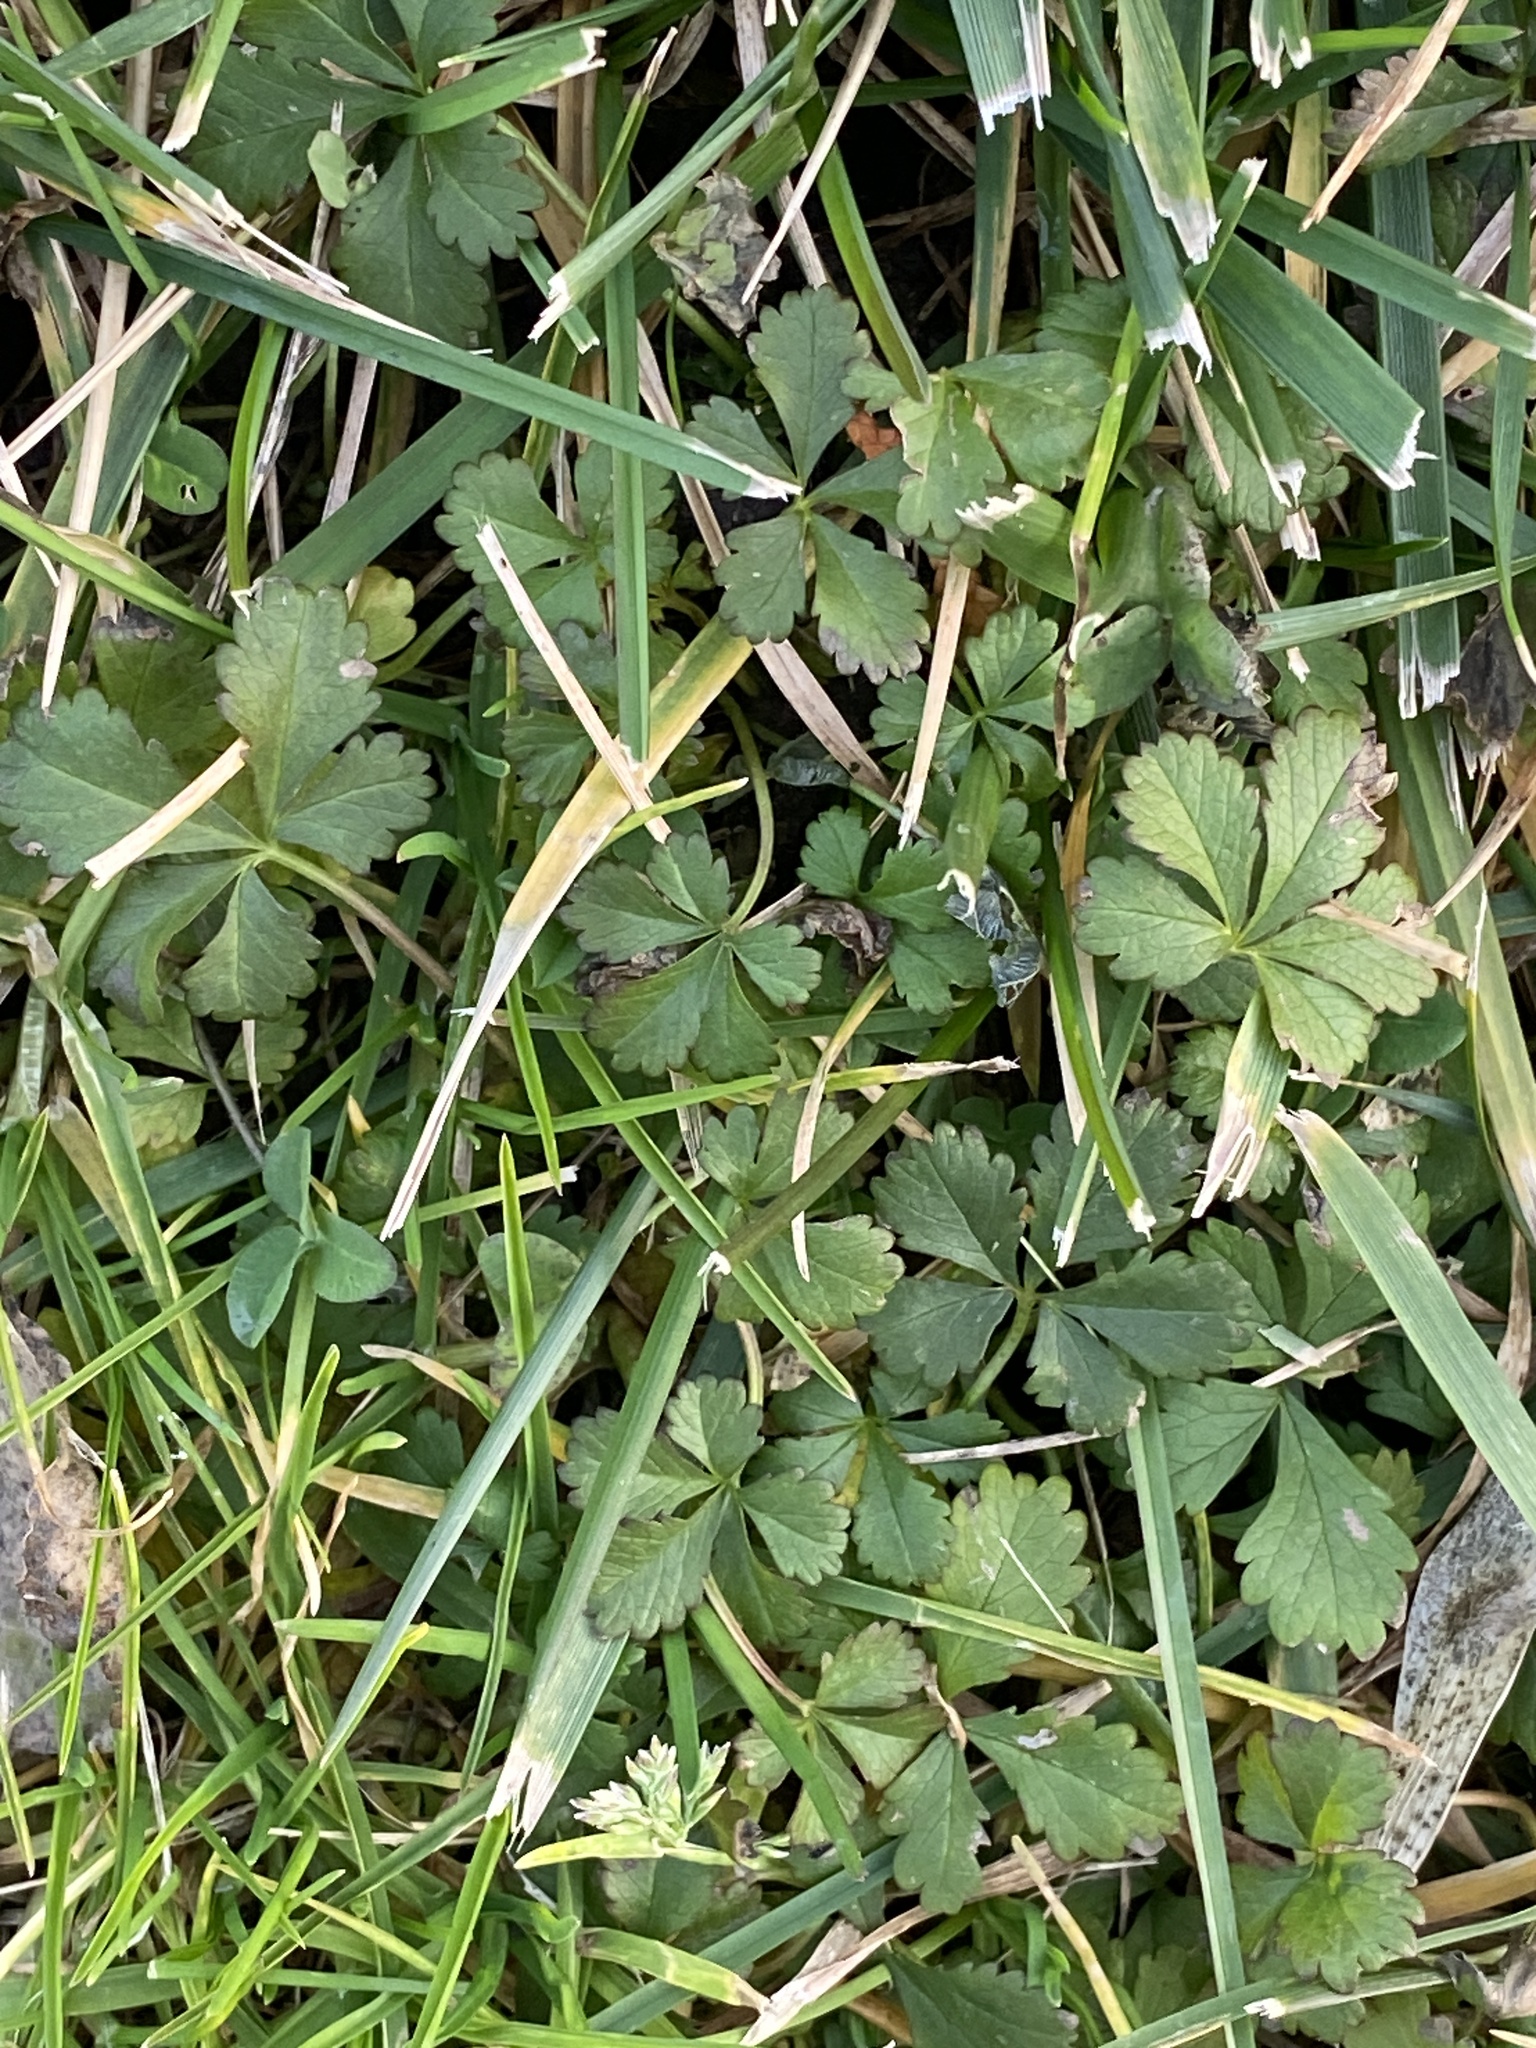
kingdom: Plantae
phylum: Tracheophyta
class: Magnoliopsida
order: Rosales
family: Rosaceae
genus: Potentilla
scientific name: Potentilla reptans
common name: Creeping cinquefoil
